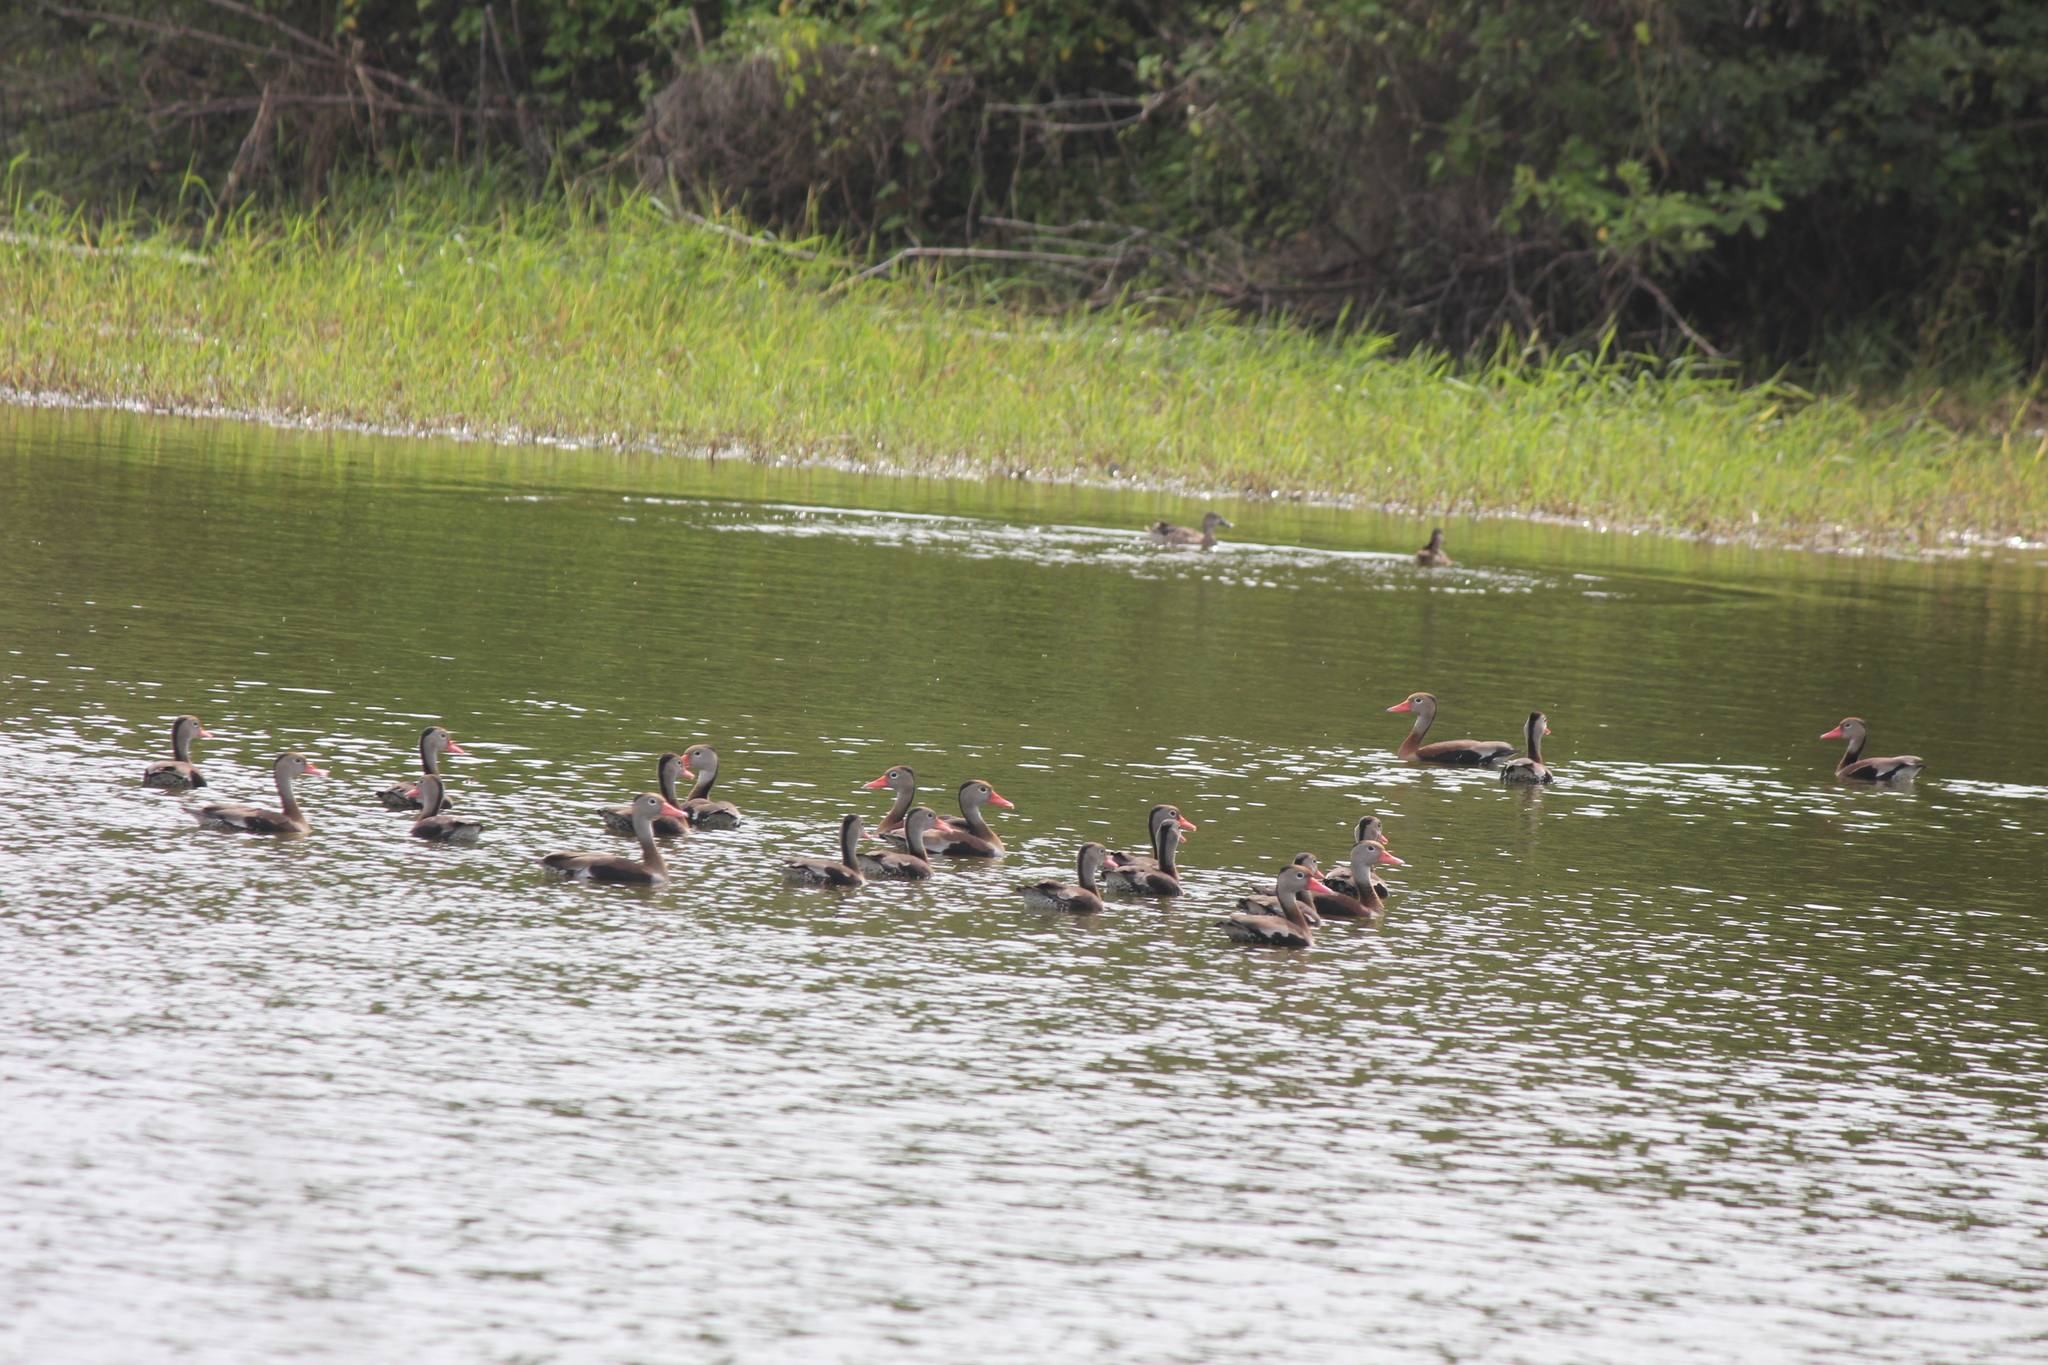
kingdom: Animalia
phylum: Chordata
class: Aves
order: Anseriformes
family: Anatidae
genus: Dendrocygna
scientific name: Dendrocygna autumnalis
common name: Black-bellied whistling duck
